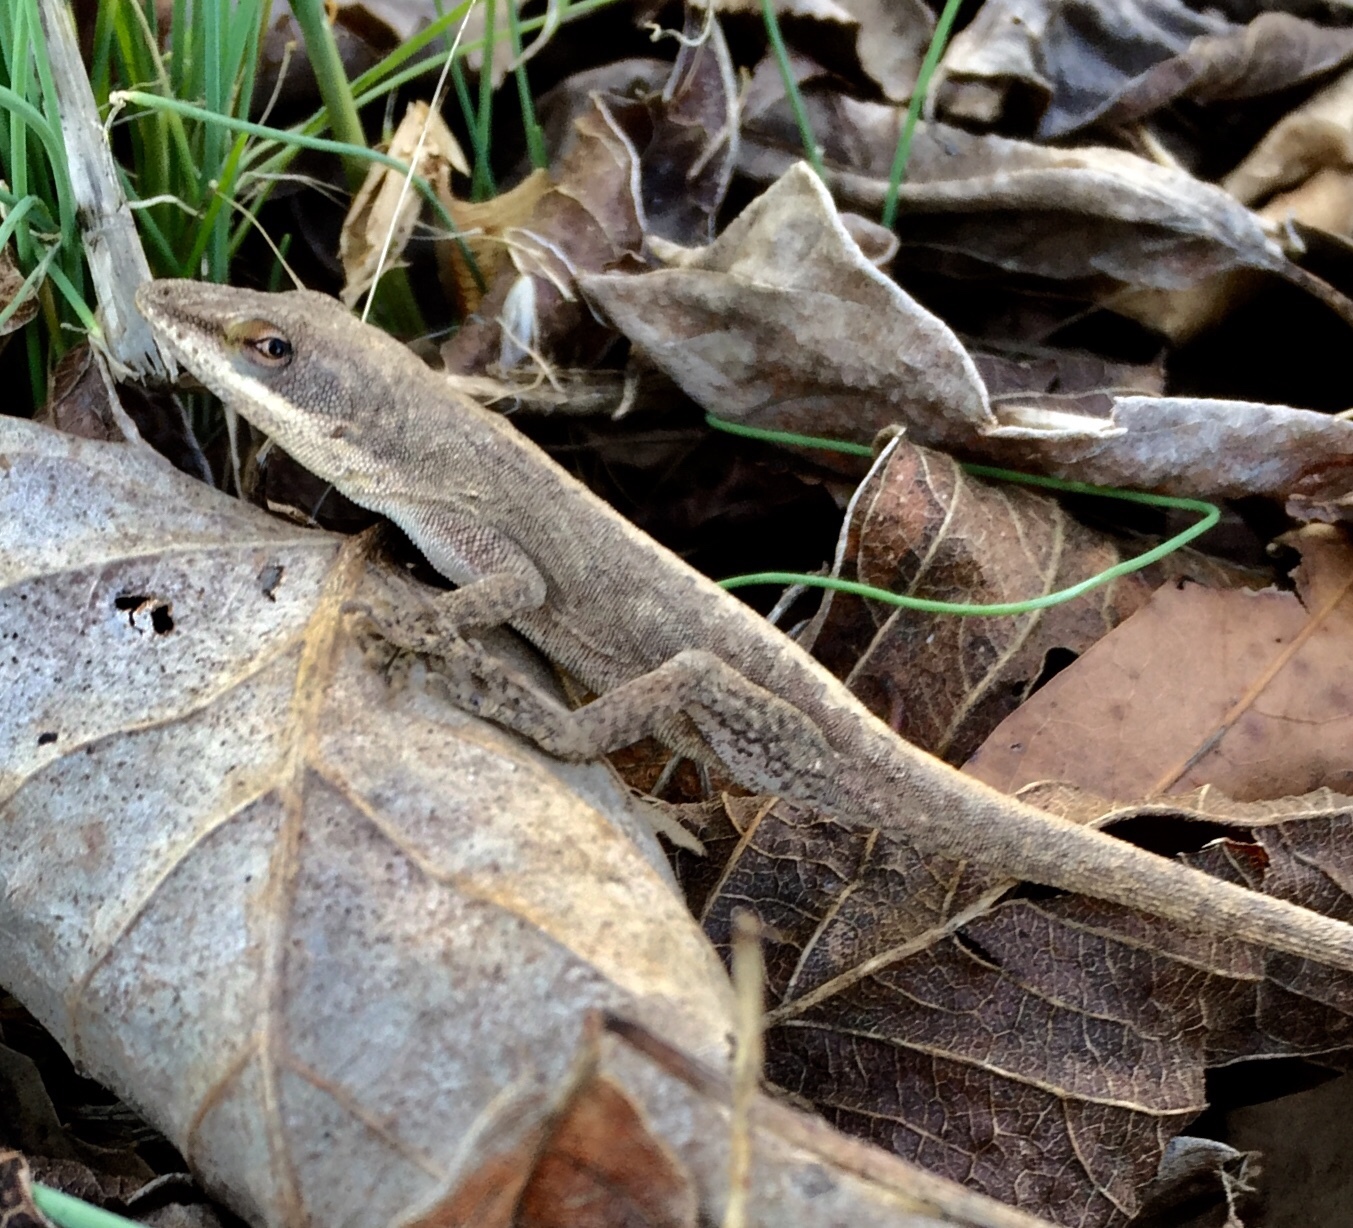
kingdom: Animalia
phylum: Chordata
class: Squamata
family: Dactyloidae
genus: Anolis
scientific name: Anolis carolinensis
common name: Green anole
